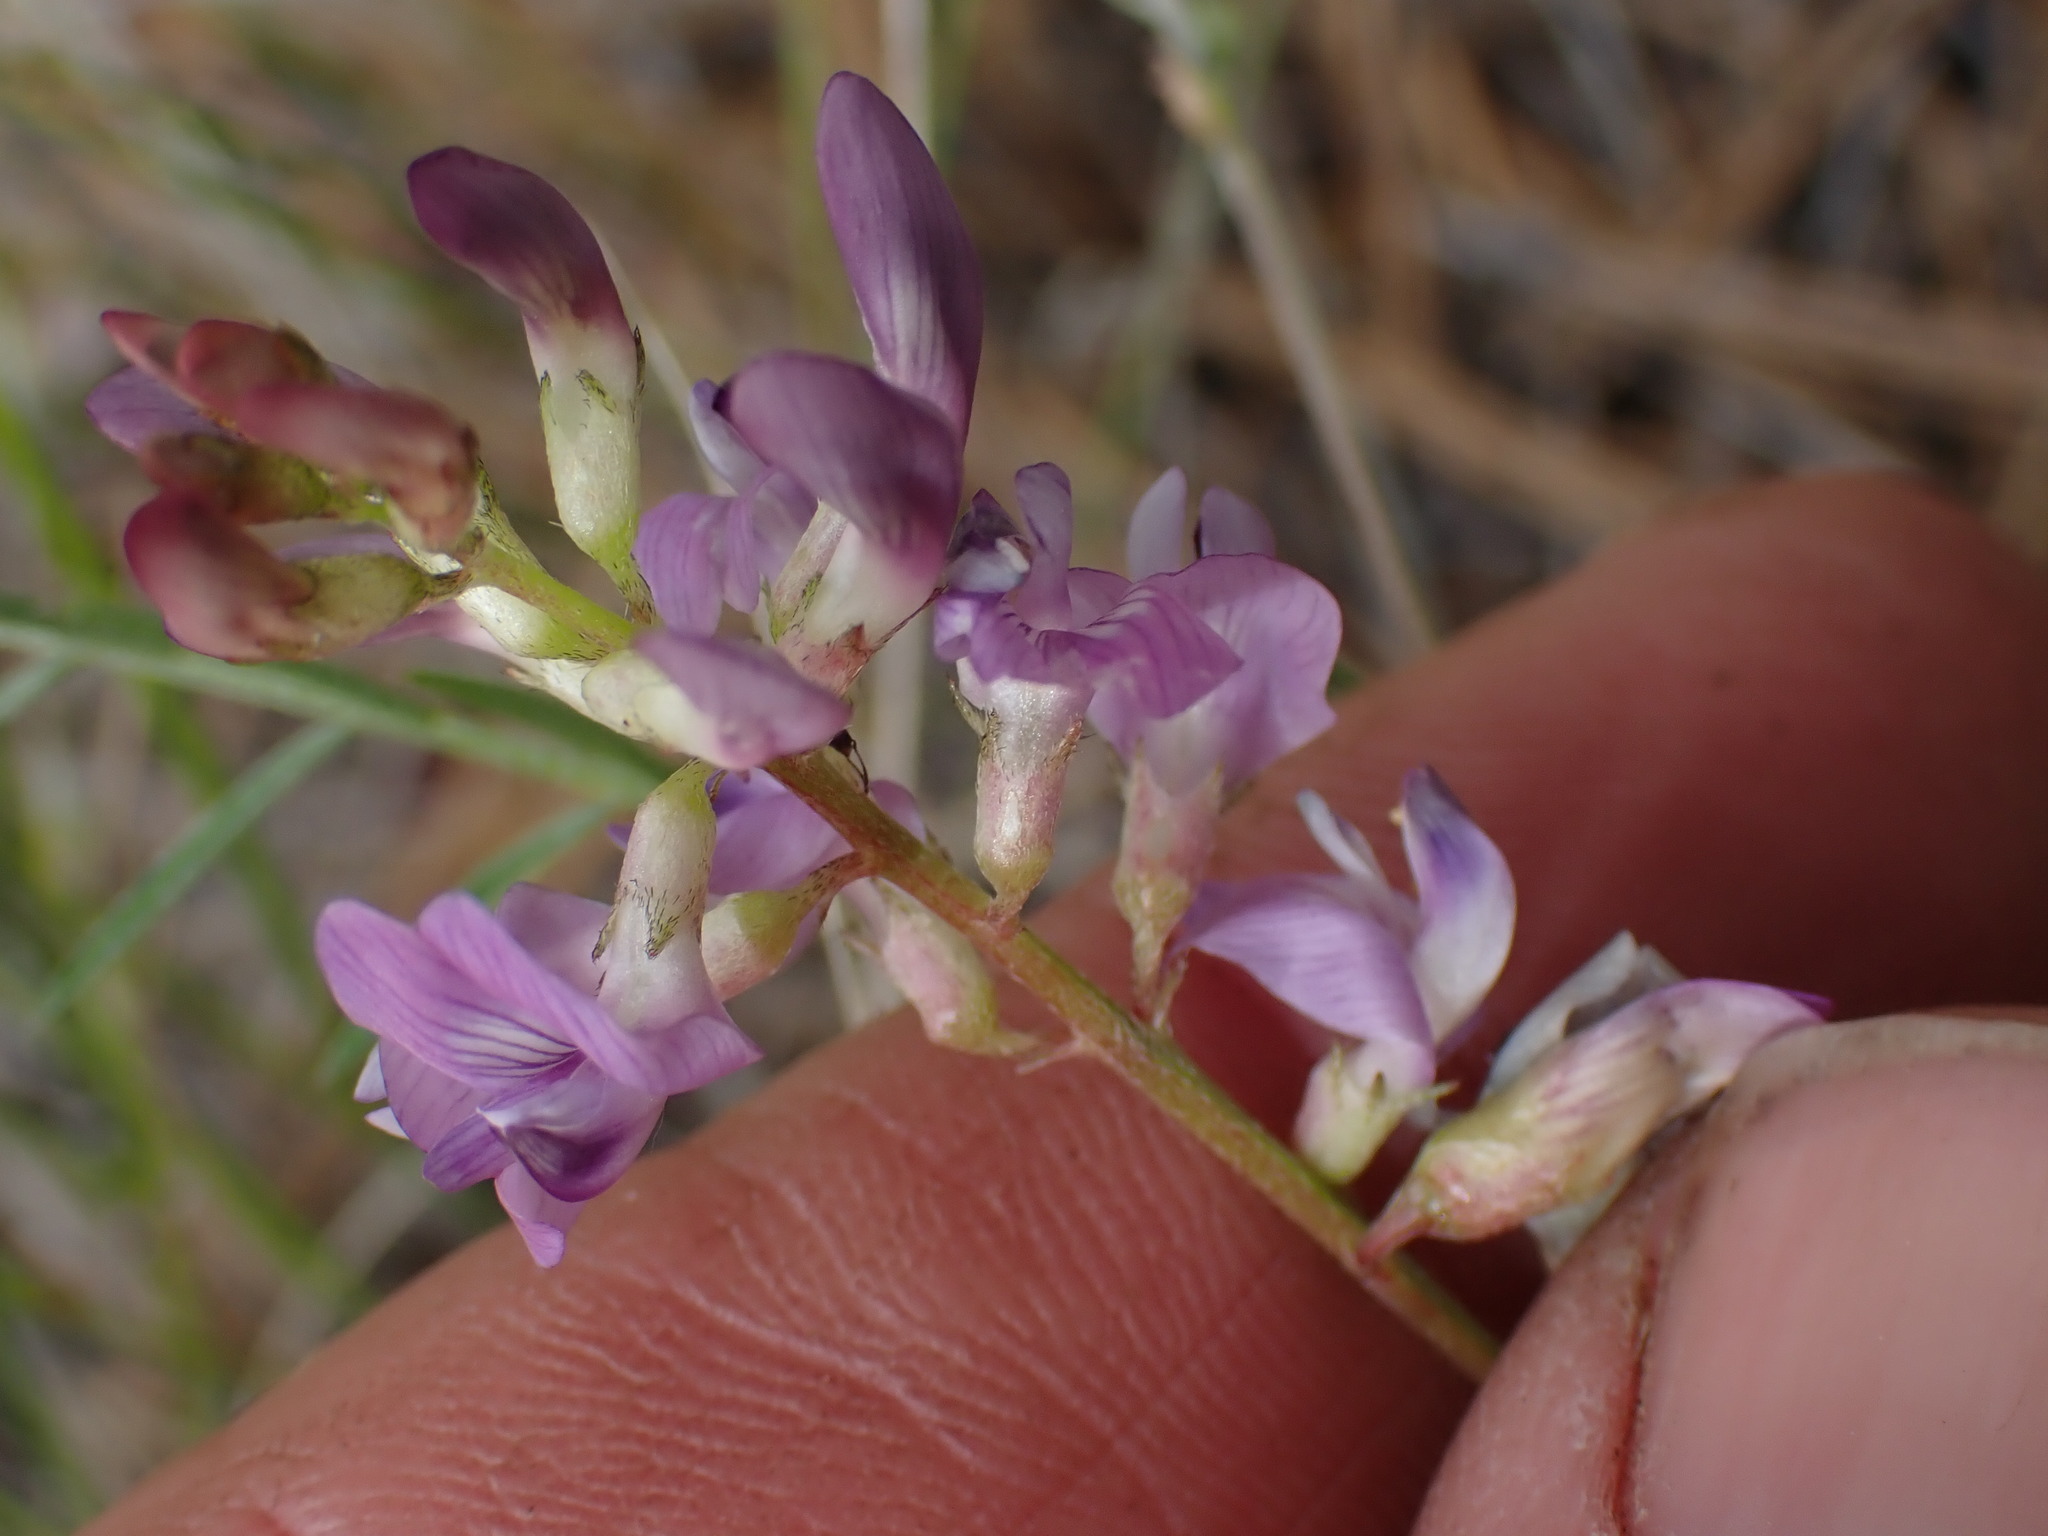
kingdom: Plantae
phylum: Tracheophyta
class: Magnoliopsida
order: Fabales
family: Fabaceae
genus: Astragalus
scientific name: Astragalus miser
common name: Timber milkvetch
